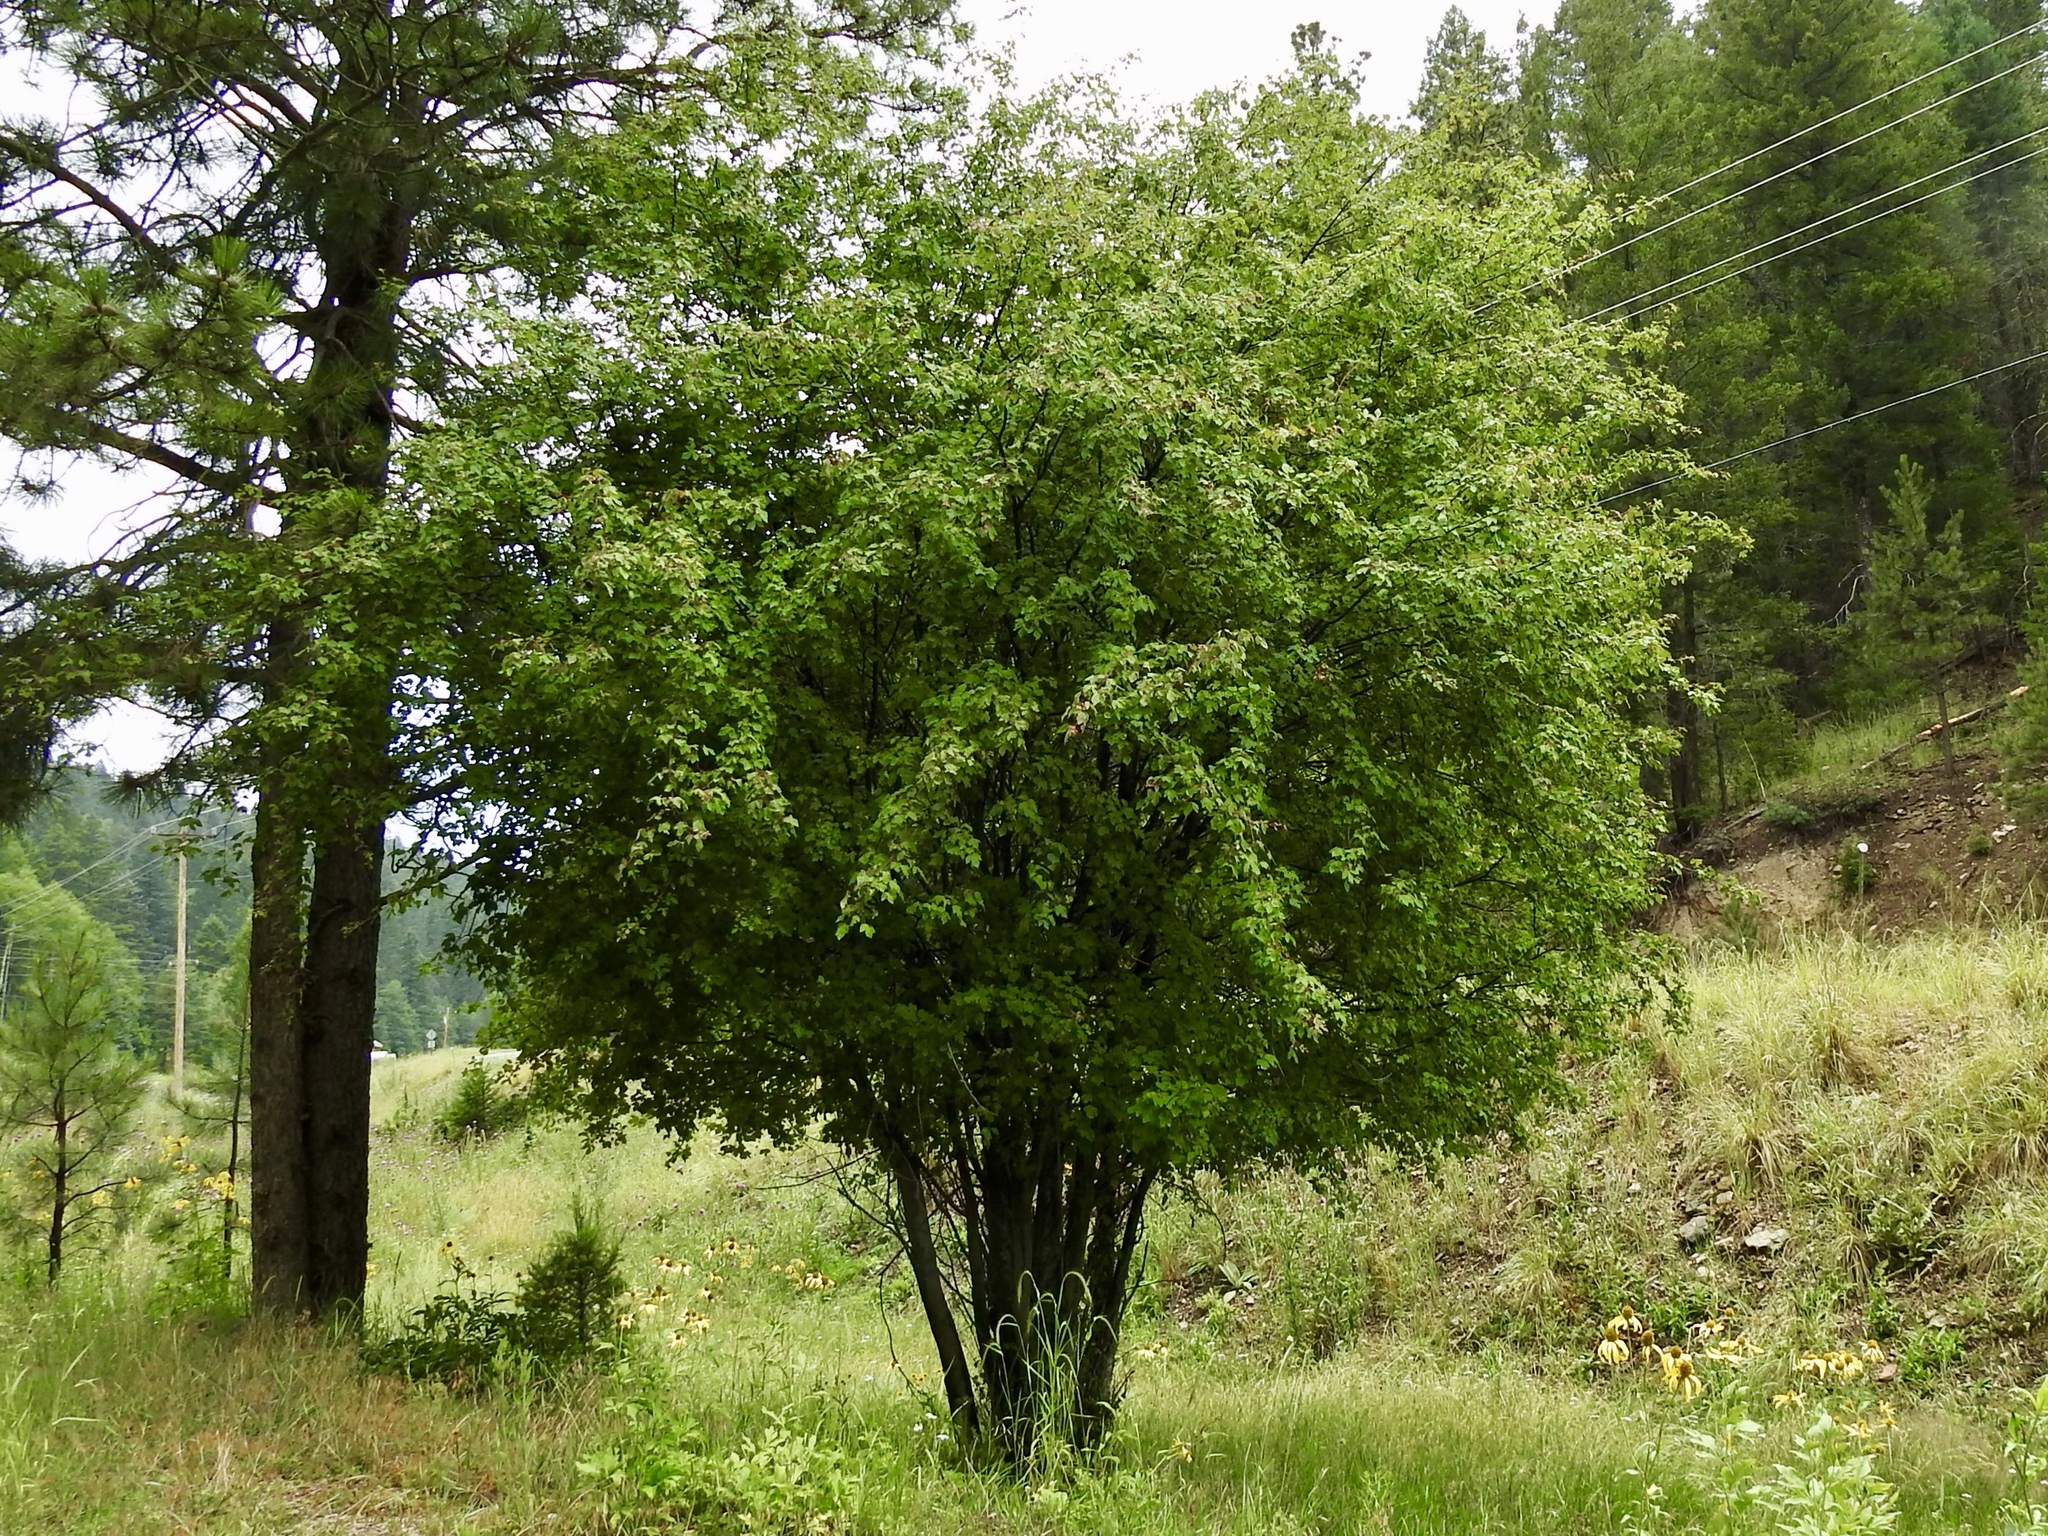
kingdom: Plantae
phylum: Tracheophyta
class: Magnoliopsida
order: Sapindales
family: Sapindaceae
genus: Acer
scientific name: Acer glabrum
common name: Rocky mountain maple
